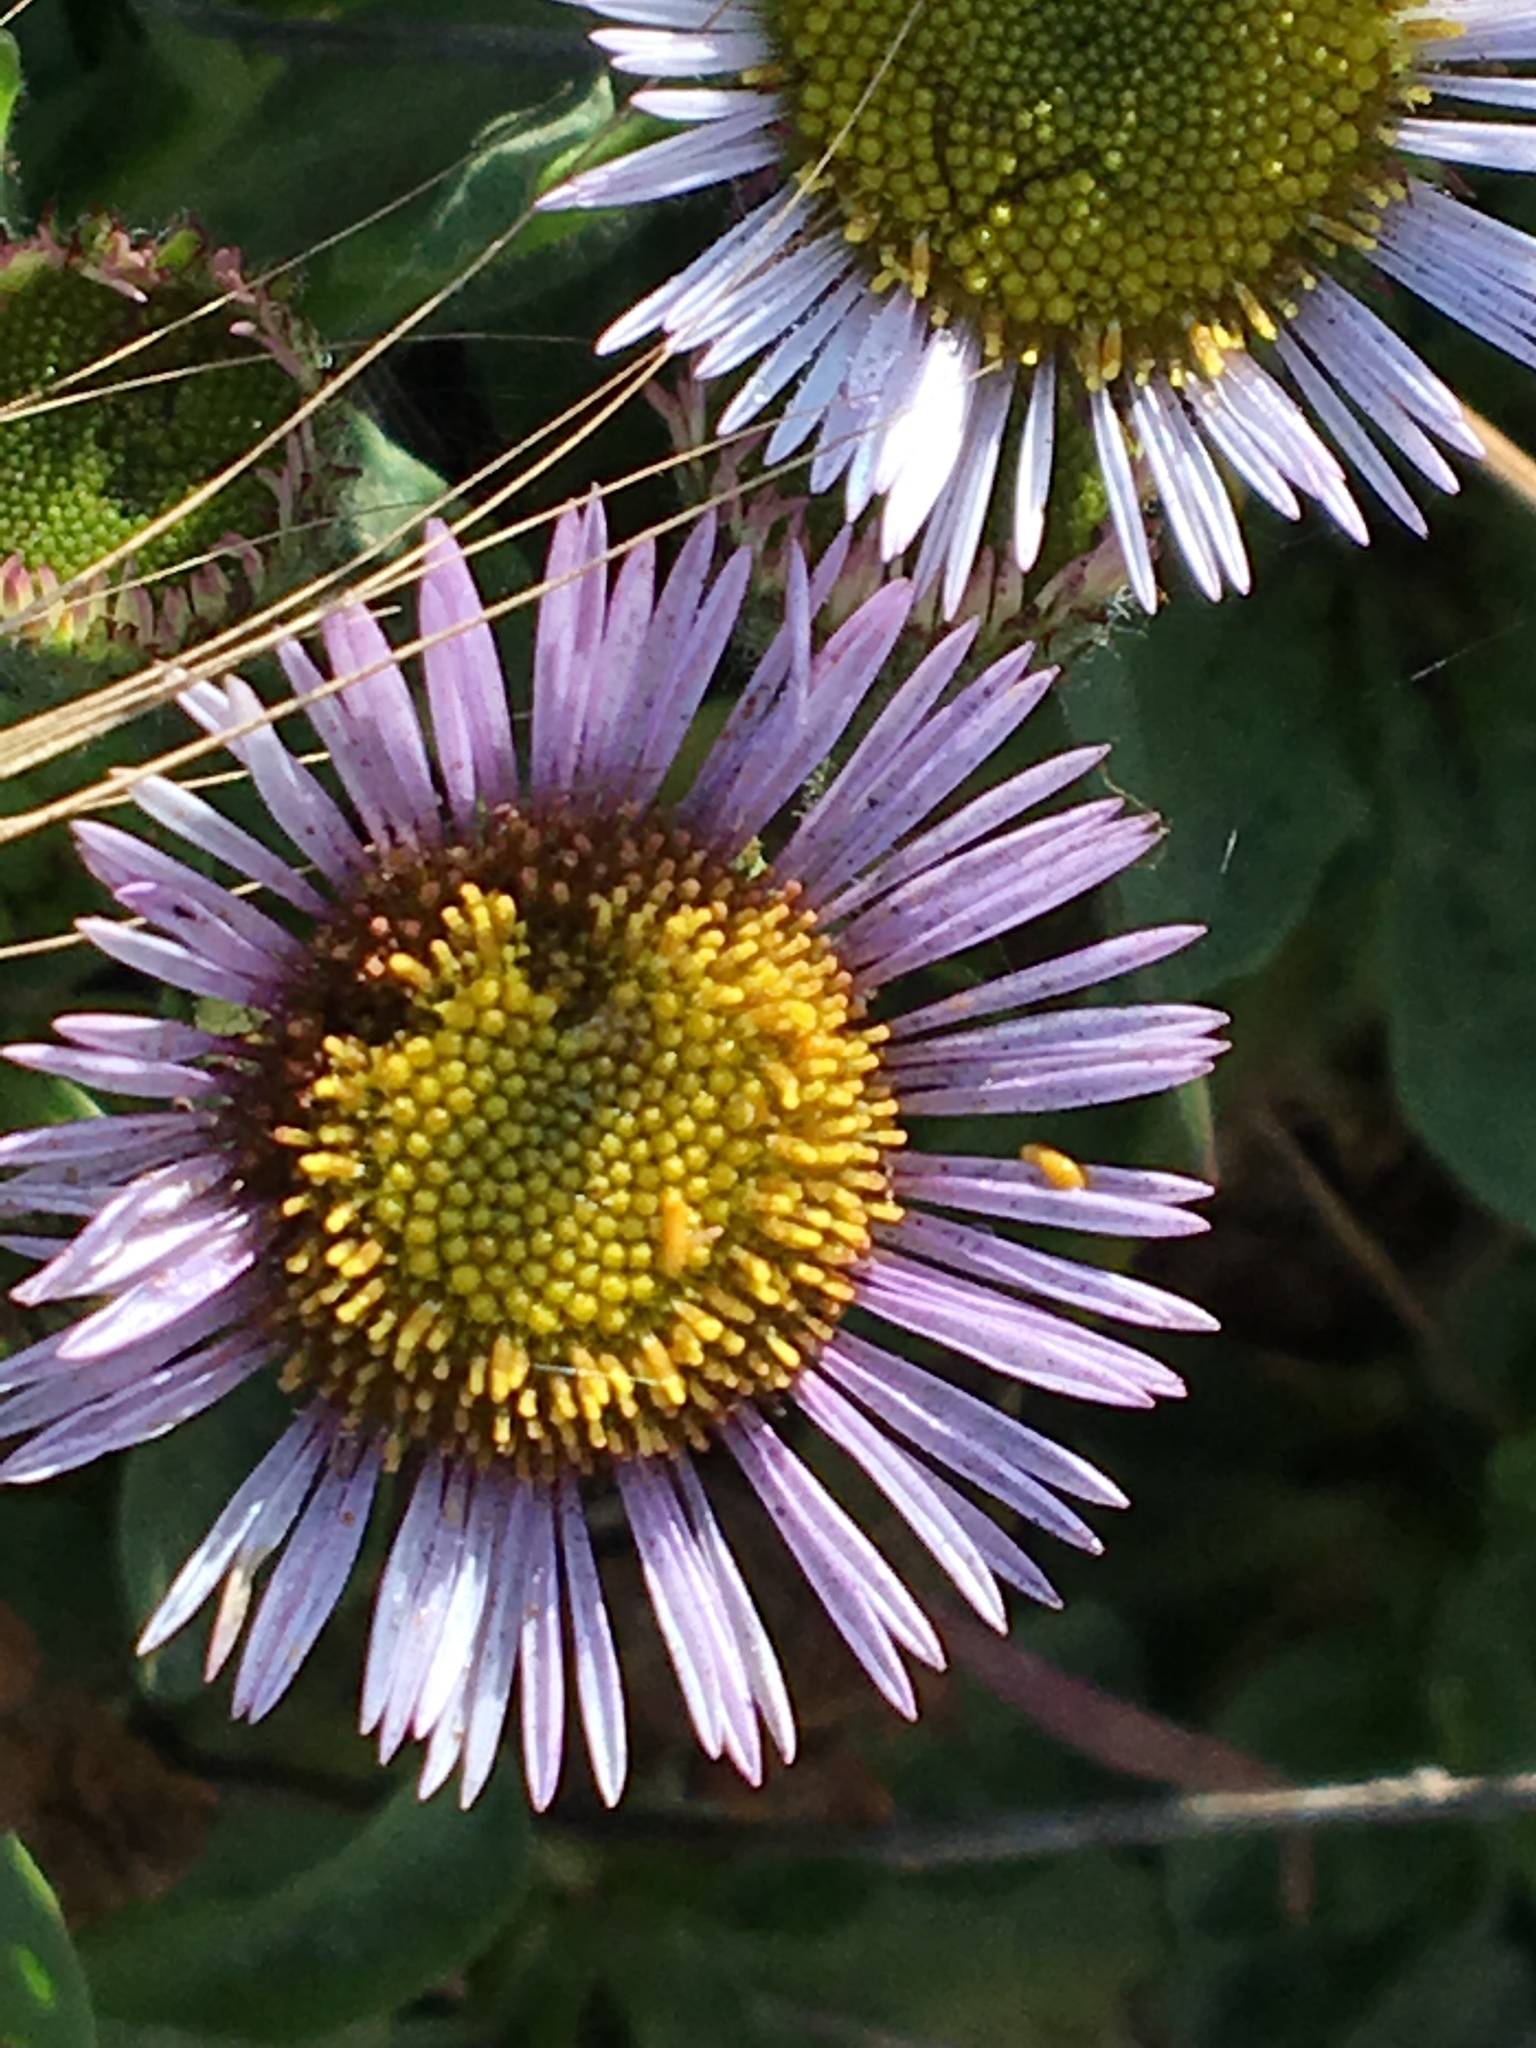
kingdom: Plantae
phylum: Tracheophyta
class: Magnoliopsida
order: Asterales
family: Asteraceae
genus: Erigeron
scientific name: Erigeron glaucus
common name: Seaside daisy
